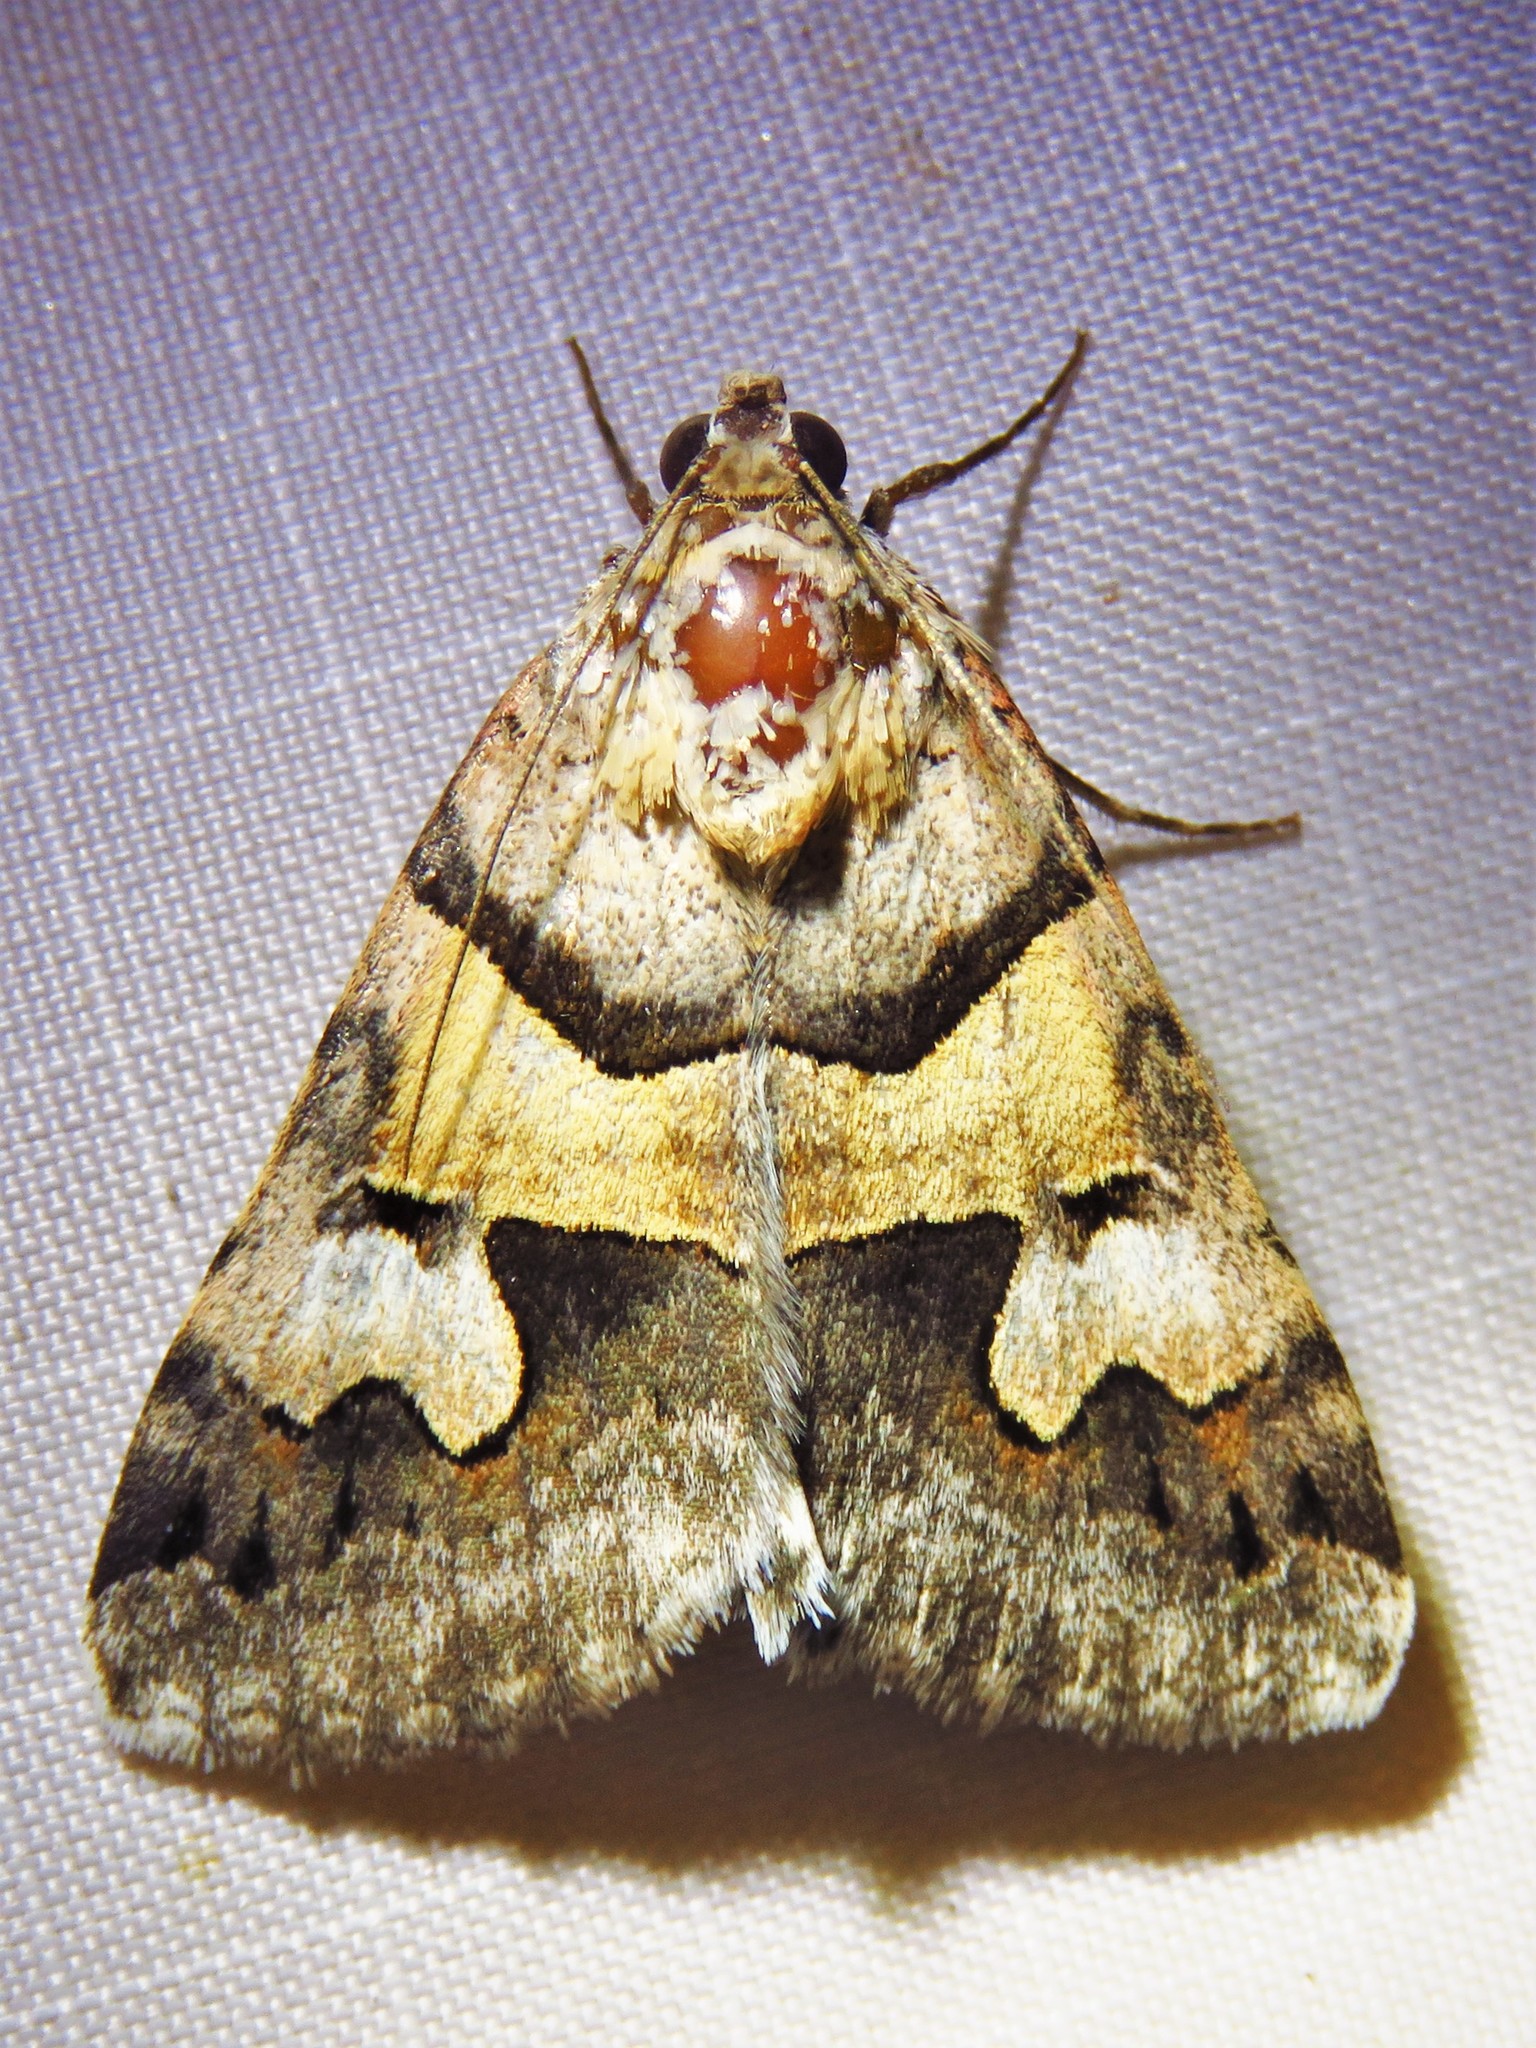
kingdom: Animalia
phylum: Arthropoda
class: Insecta
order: Lepidoptera
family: Erebidae
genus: Drasteria
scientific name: Drasteria pallescens
